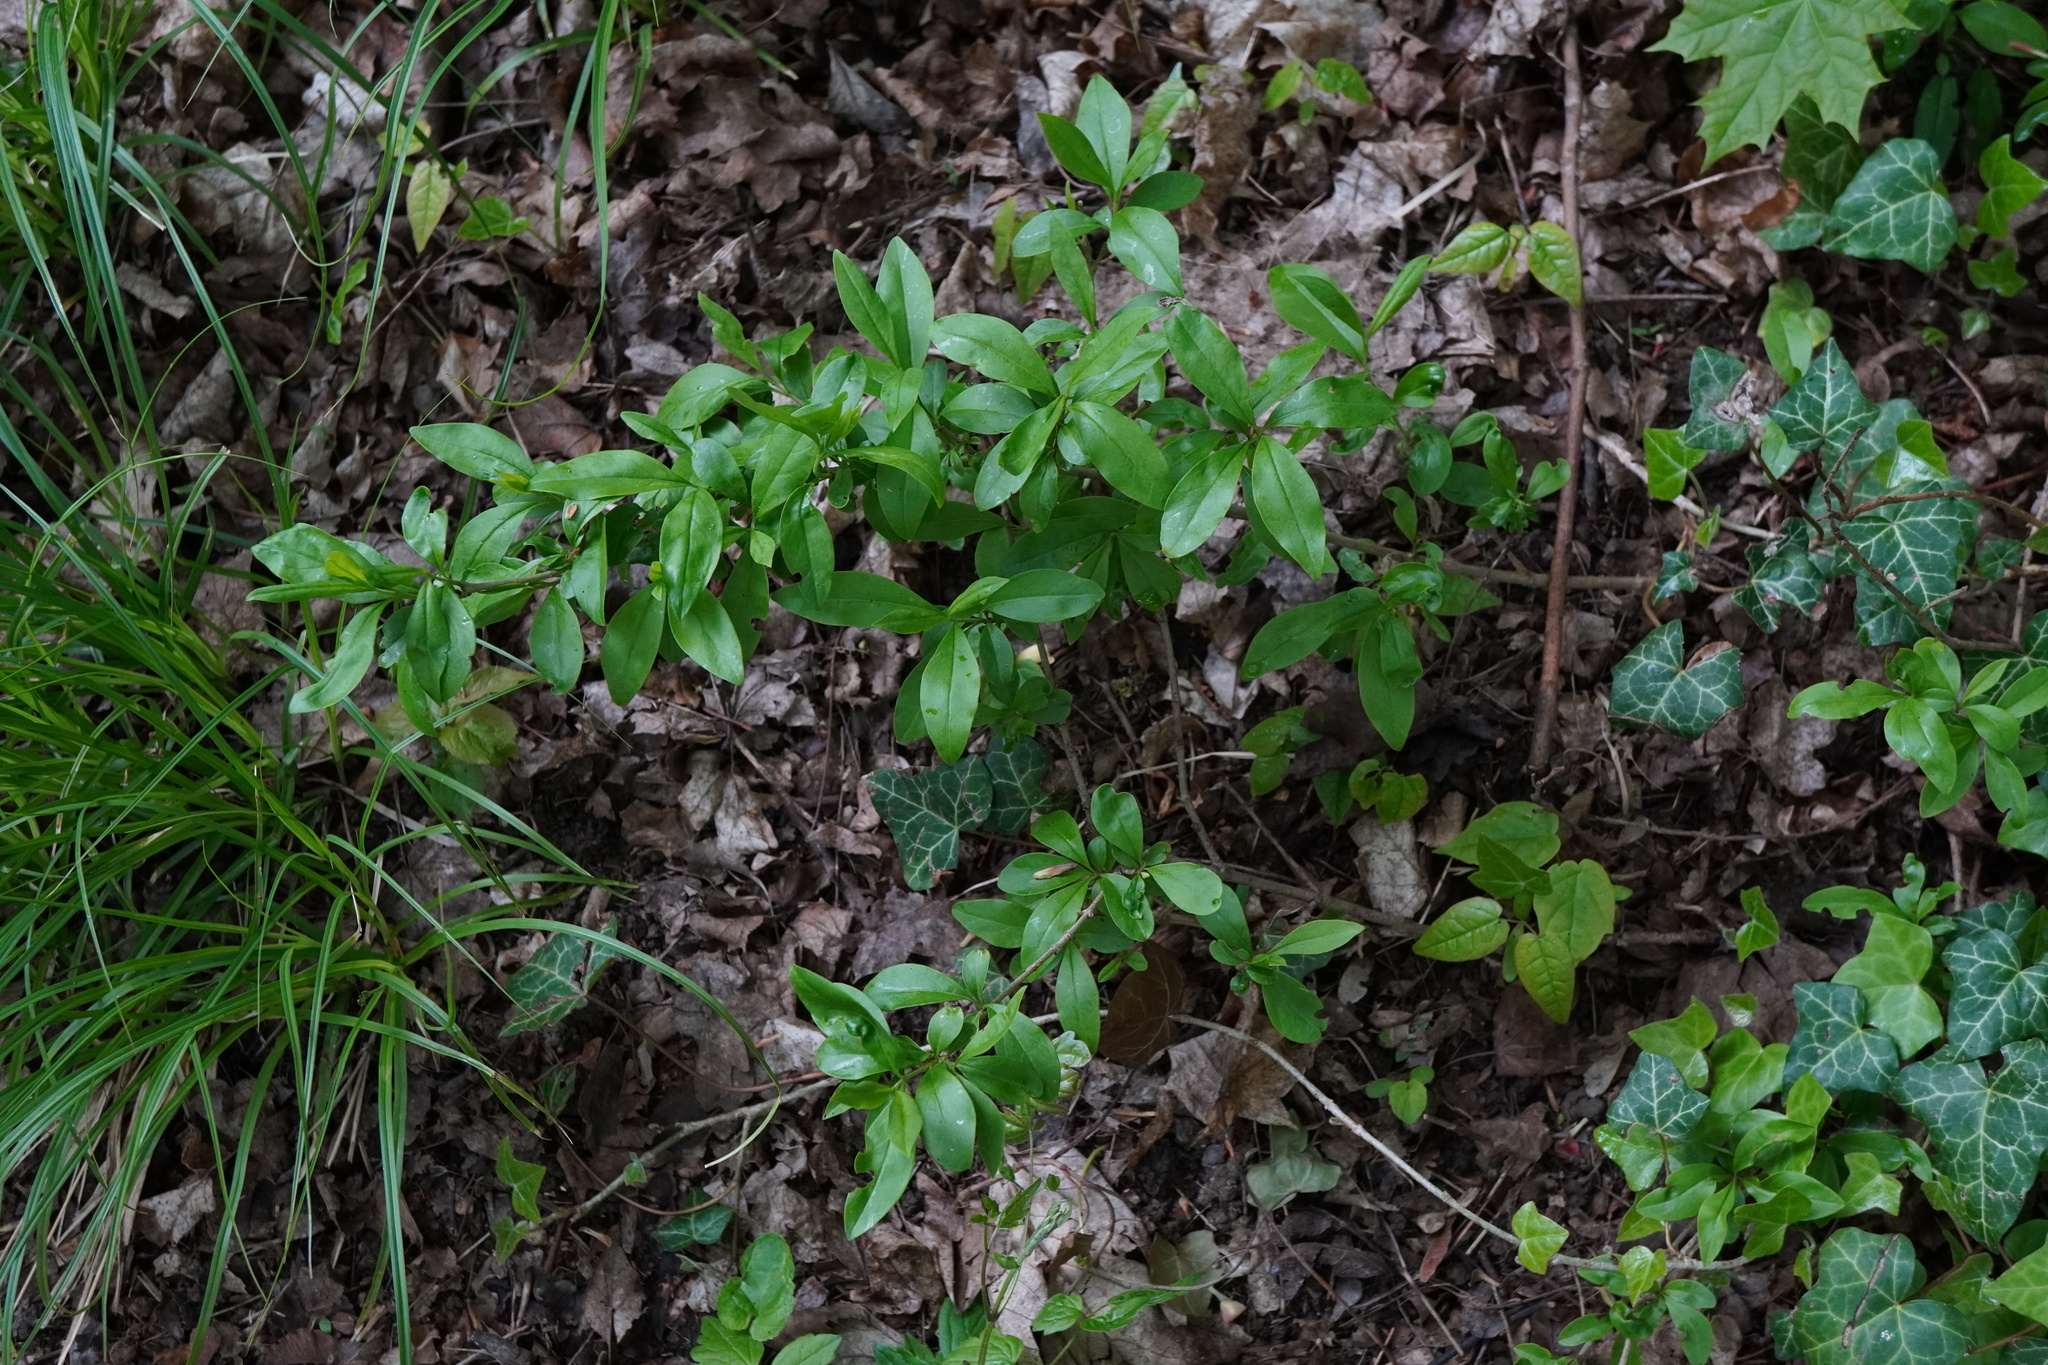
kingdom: Plantae
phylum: Tracheophyta
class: Magnoliopsida
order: Lamiales
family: Oleaceae
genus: Ligustrum
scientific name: Ligustrum vulgare
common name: Wild privet
